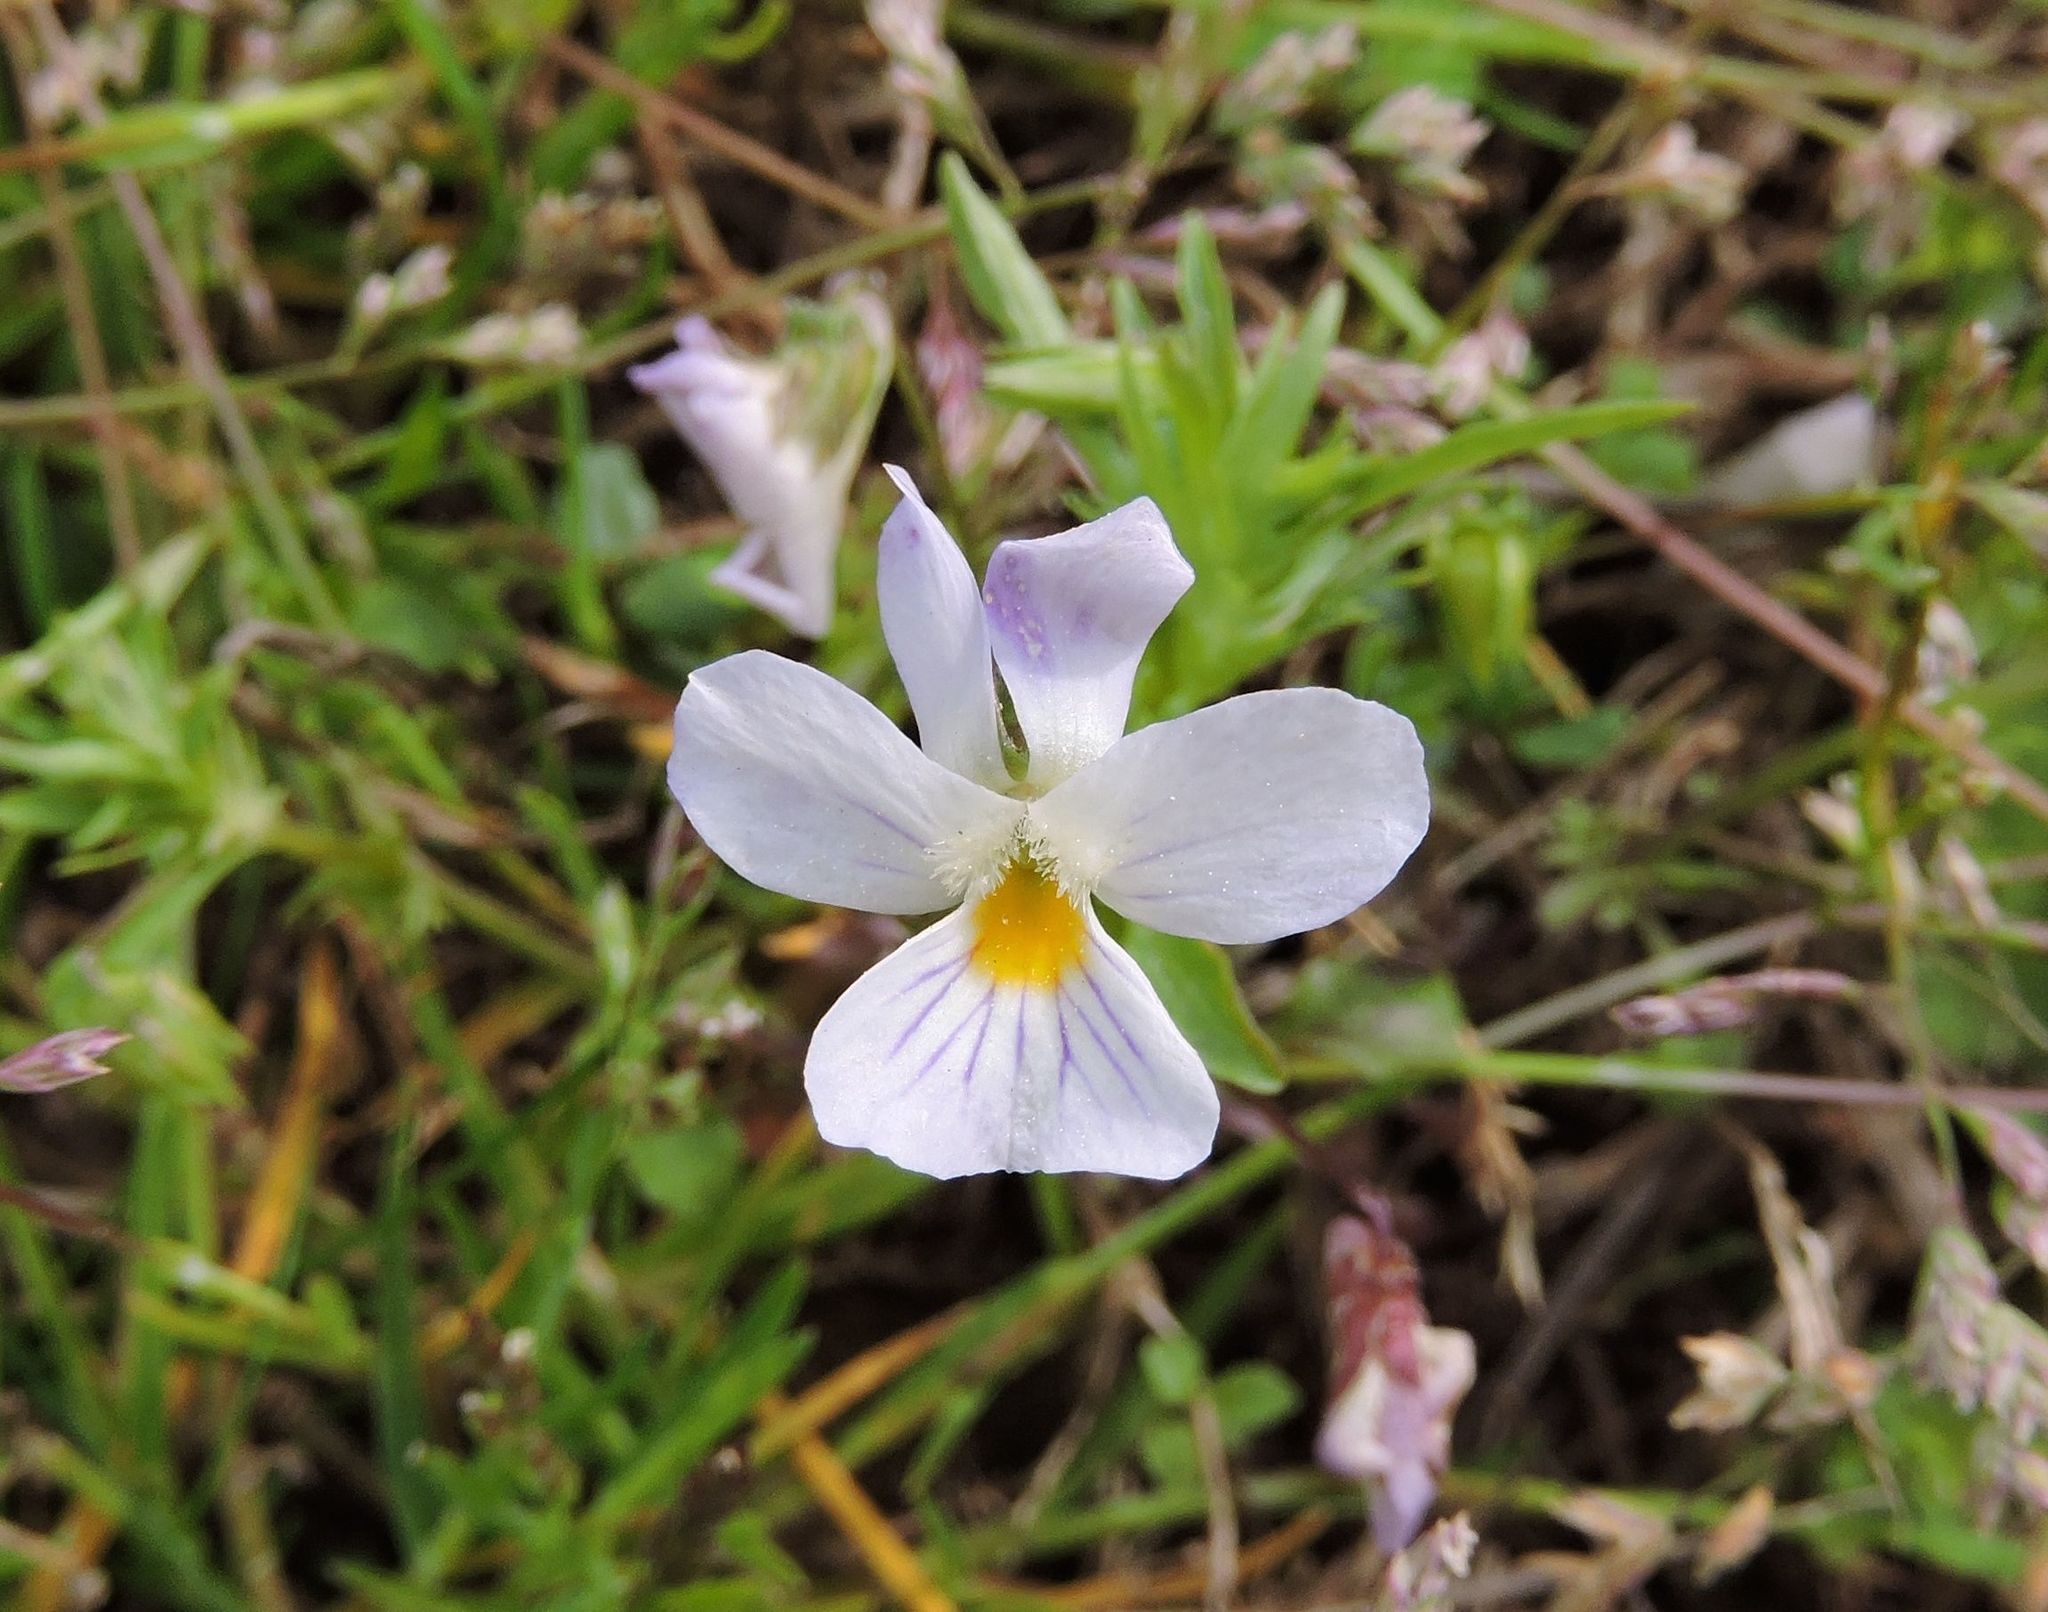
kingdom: Plantae
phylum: Tracheophyta
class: Magnoliopsida
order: Malpighiales
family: Violaceae
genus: Viola
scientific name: Viola rafinesquei
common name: American field pansy
